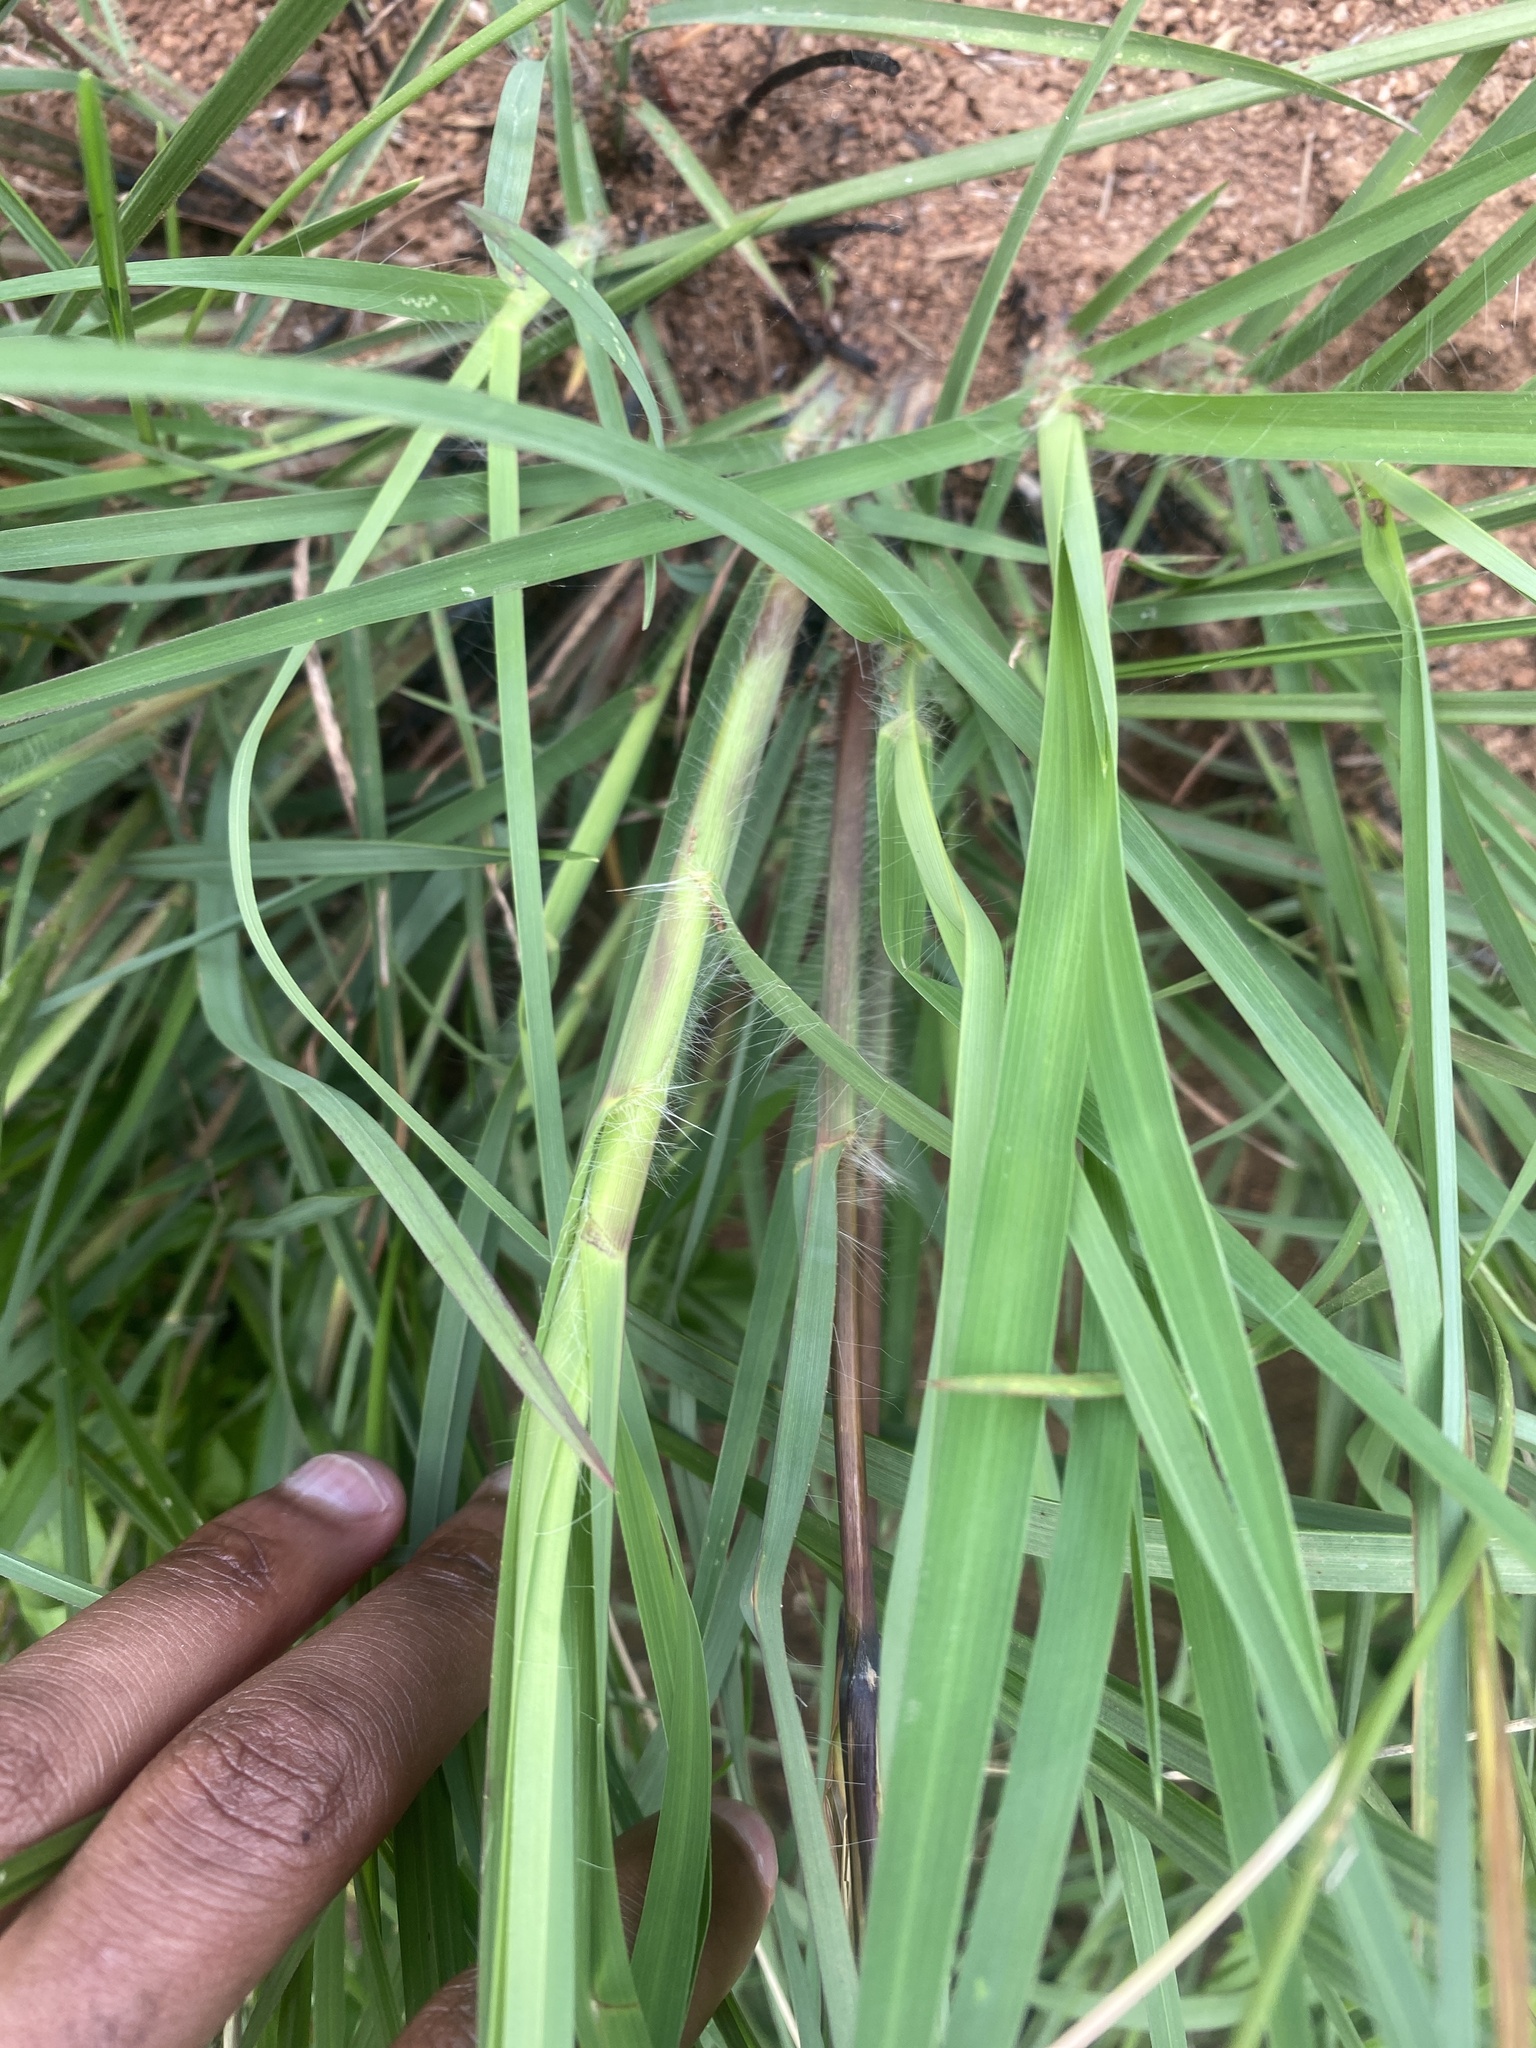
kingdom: Plantae
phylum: Tracheophyta
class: Liliopsida
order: Poales
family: Poaceae
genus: Themeda
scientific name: Themeda triandra
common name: Kangaroo grass
